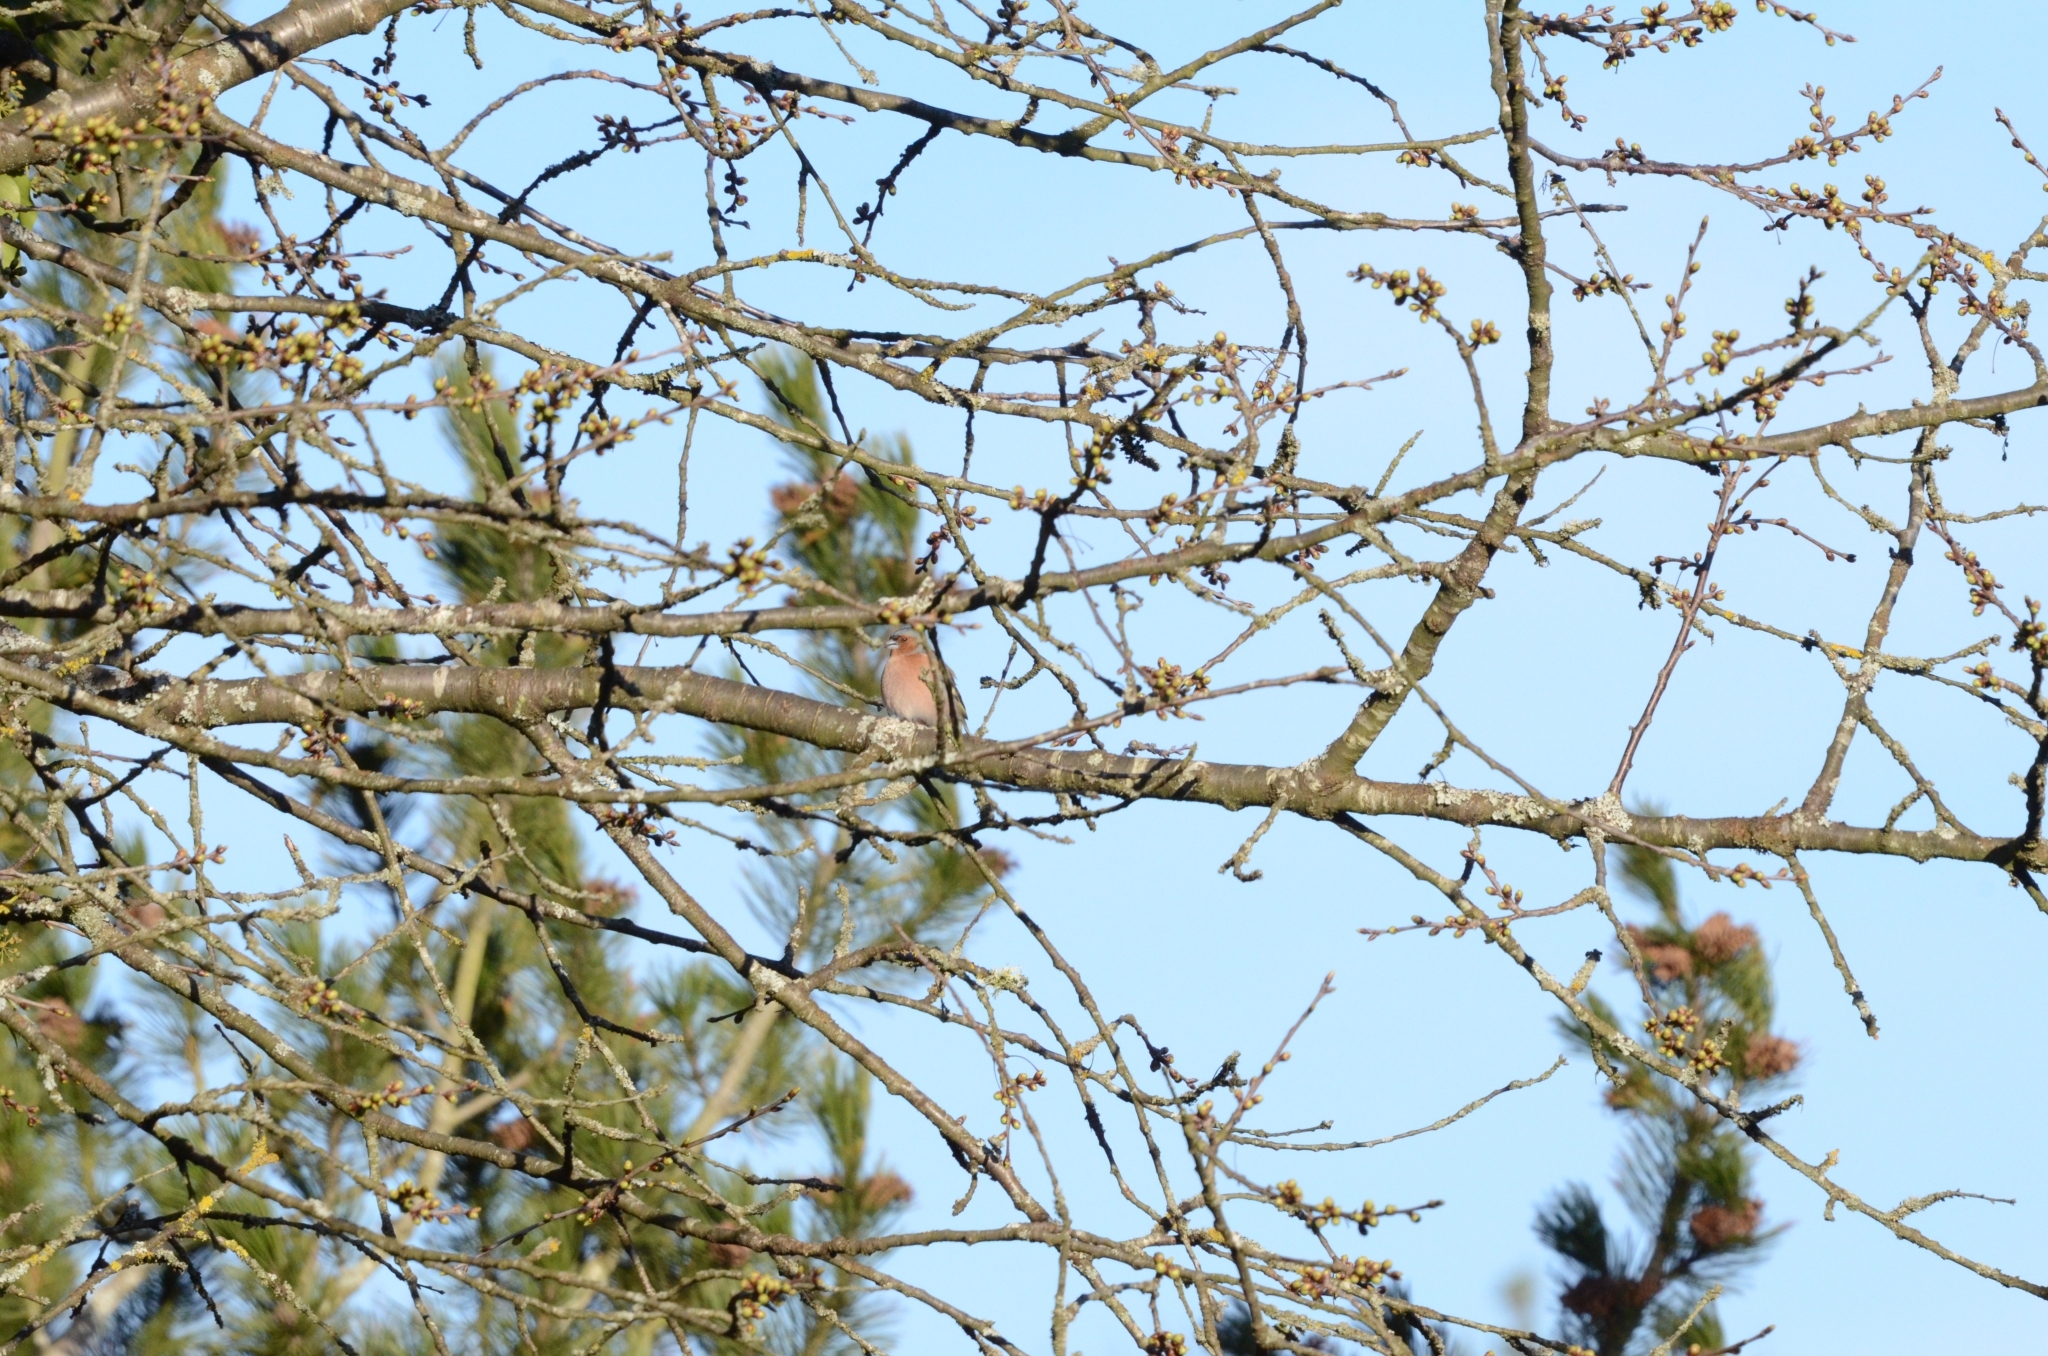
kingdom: Animalia
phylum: Chordata
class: Aves
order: Passeriformes
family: Fringillidae
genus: Fringilla
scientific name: Fringilla coelebs
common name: Common chaffinch
